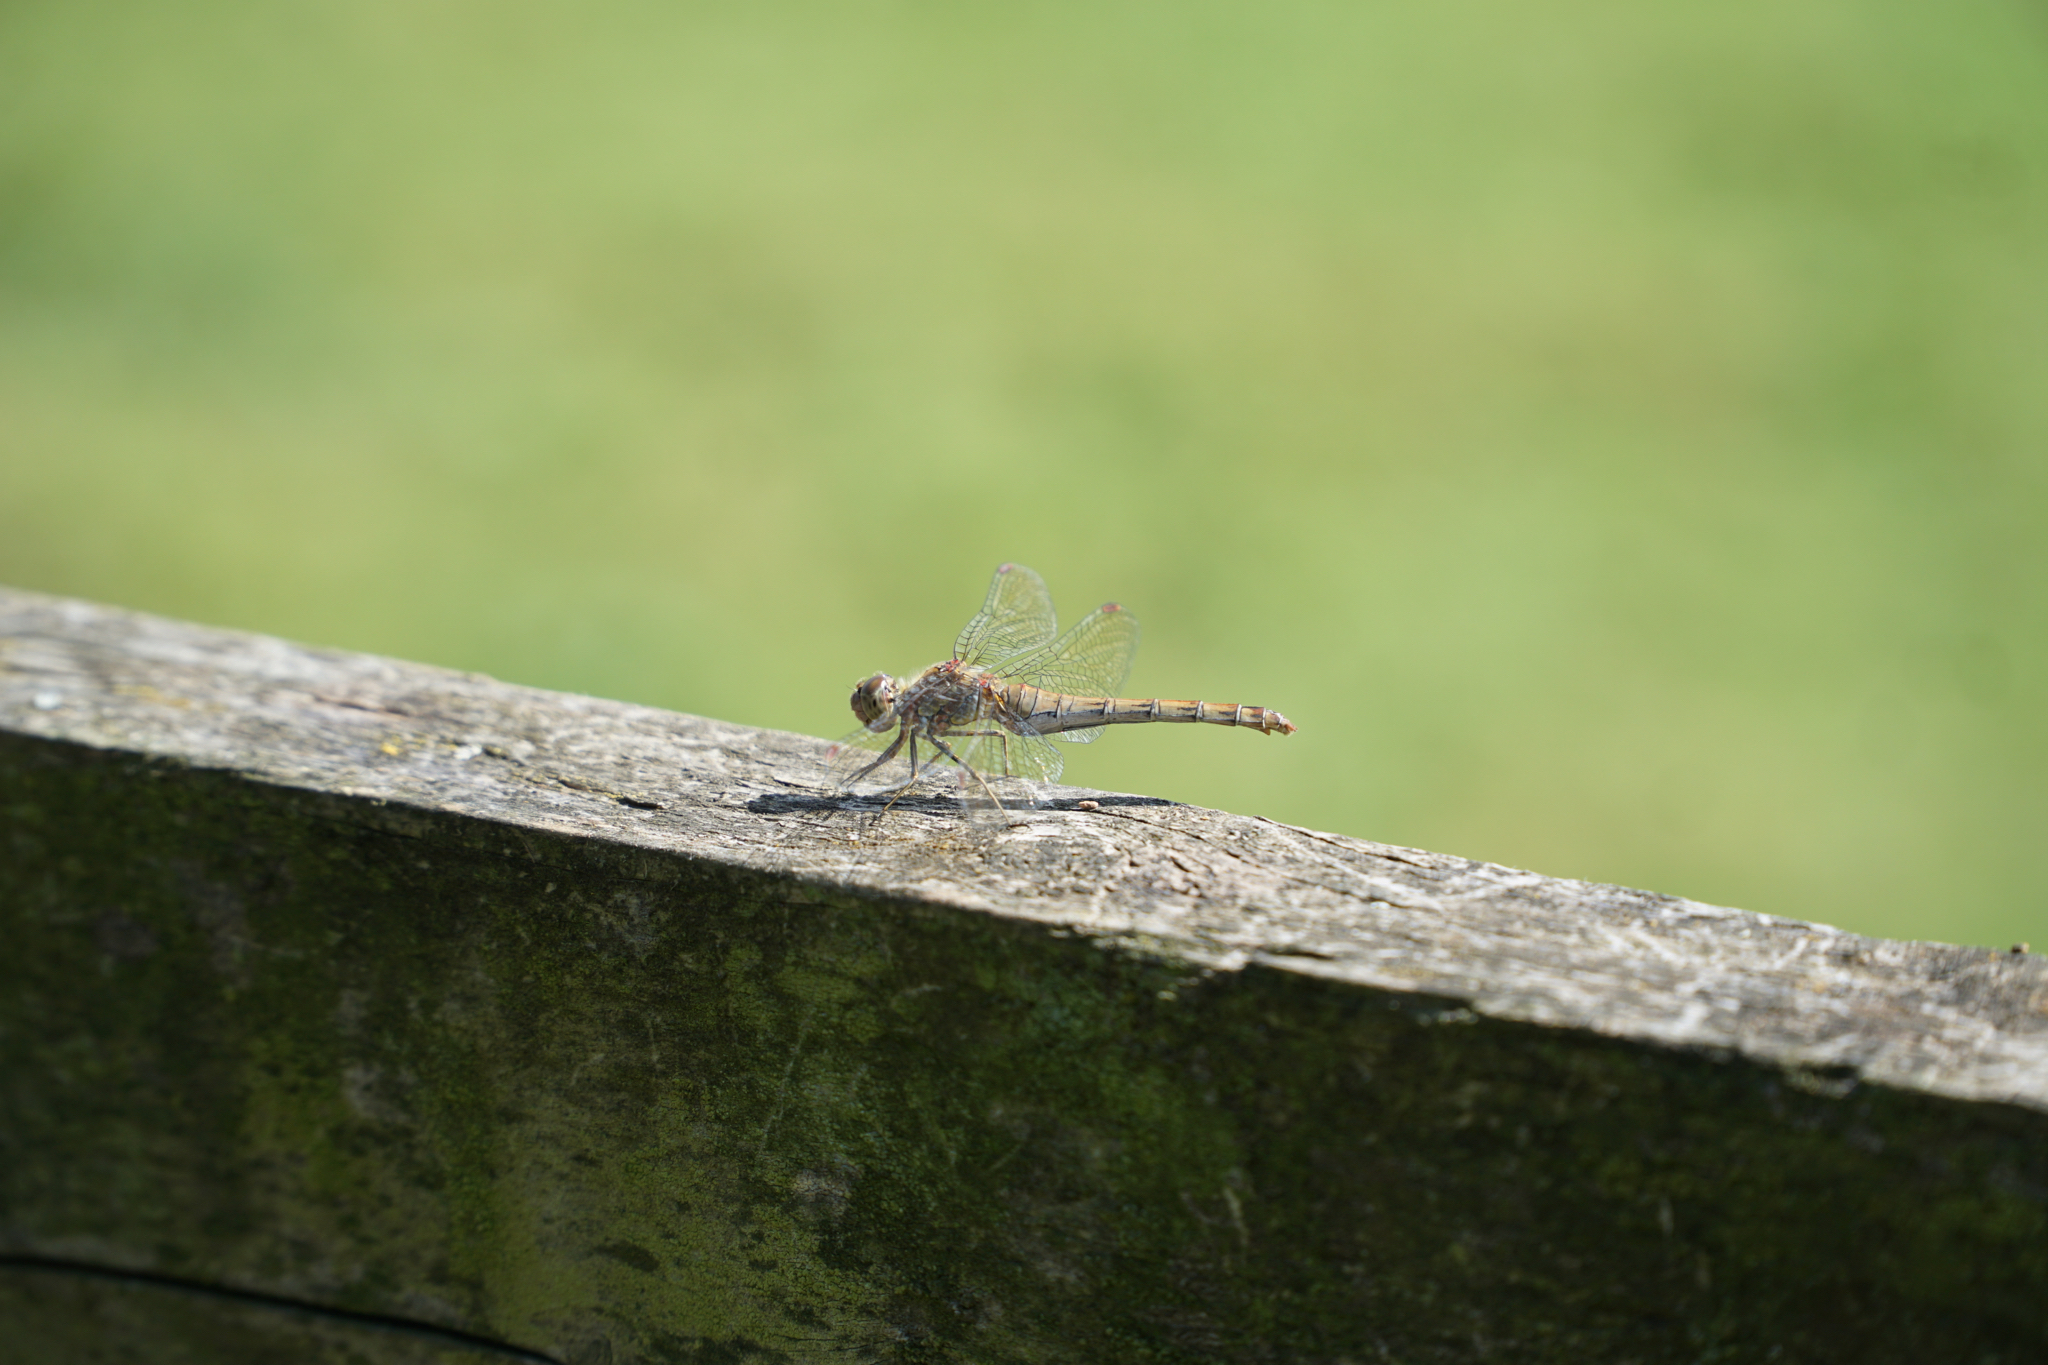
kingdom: Animalia
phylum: Arthropoda
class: Insecta
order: Odonata
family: Libellulidae
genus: Sympetrum
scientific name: Sympetrum striolatum
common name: Common darter
